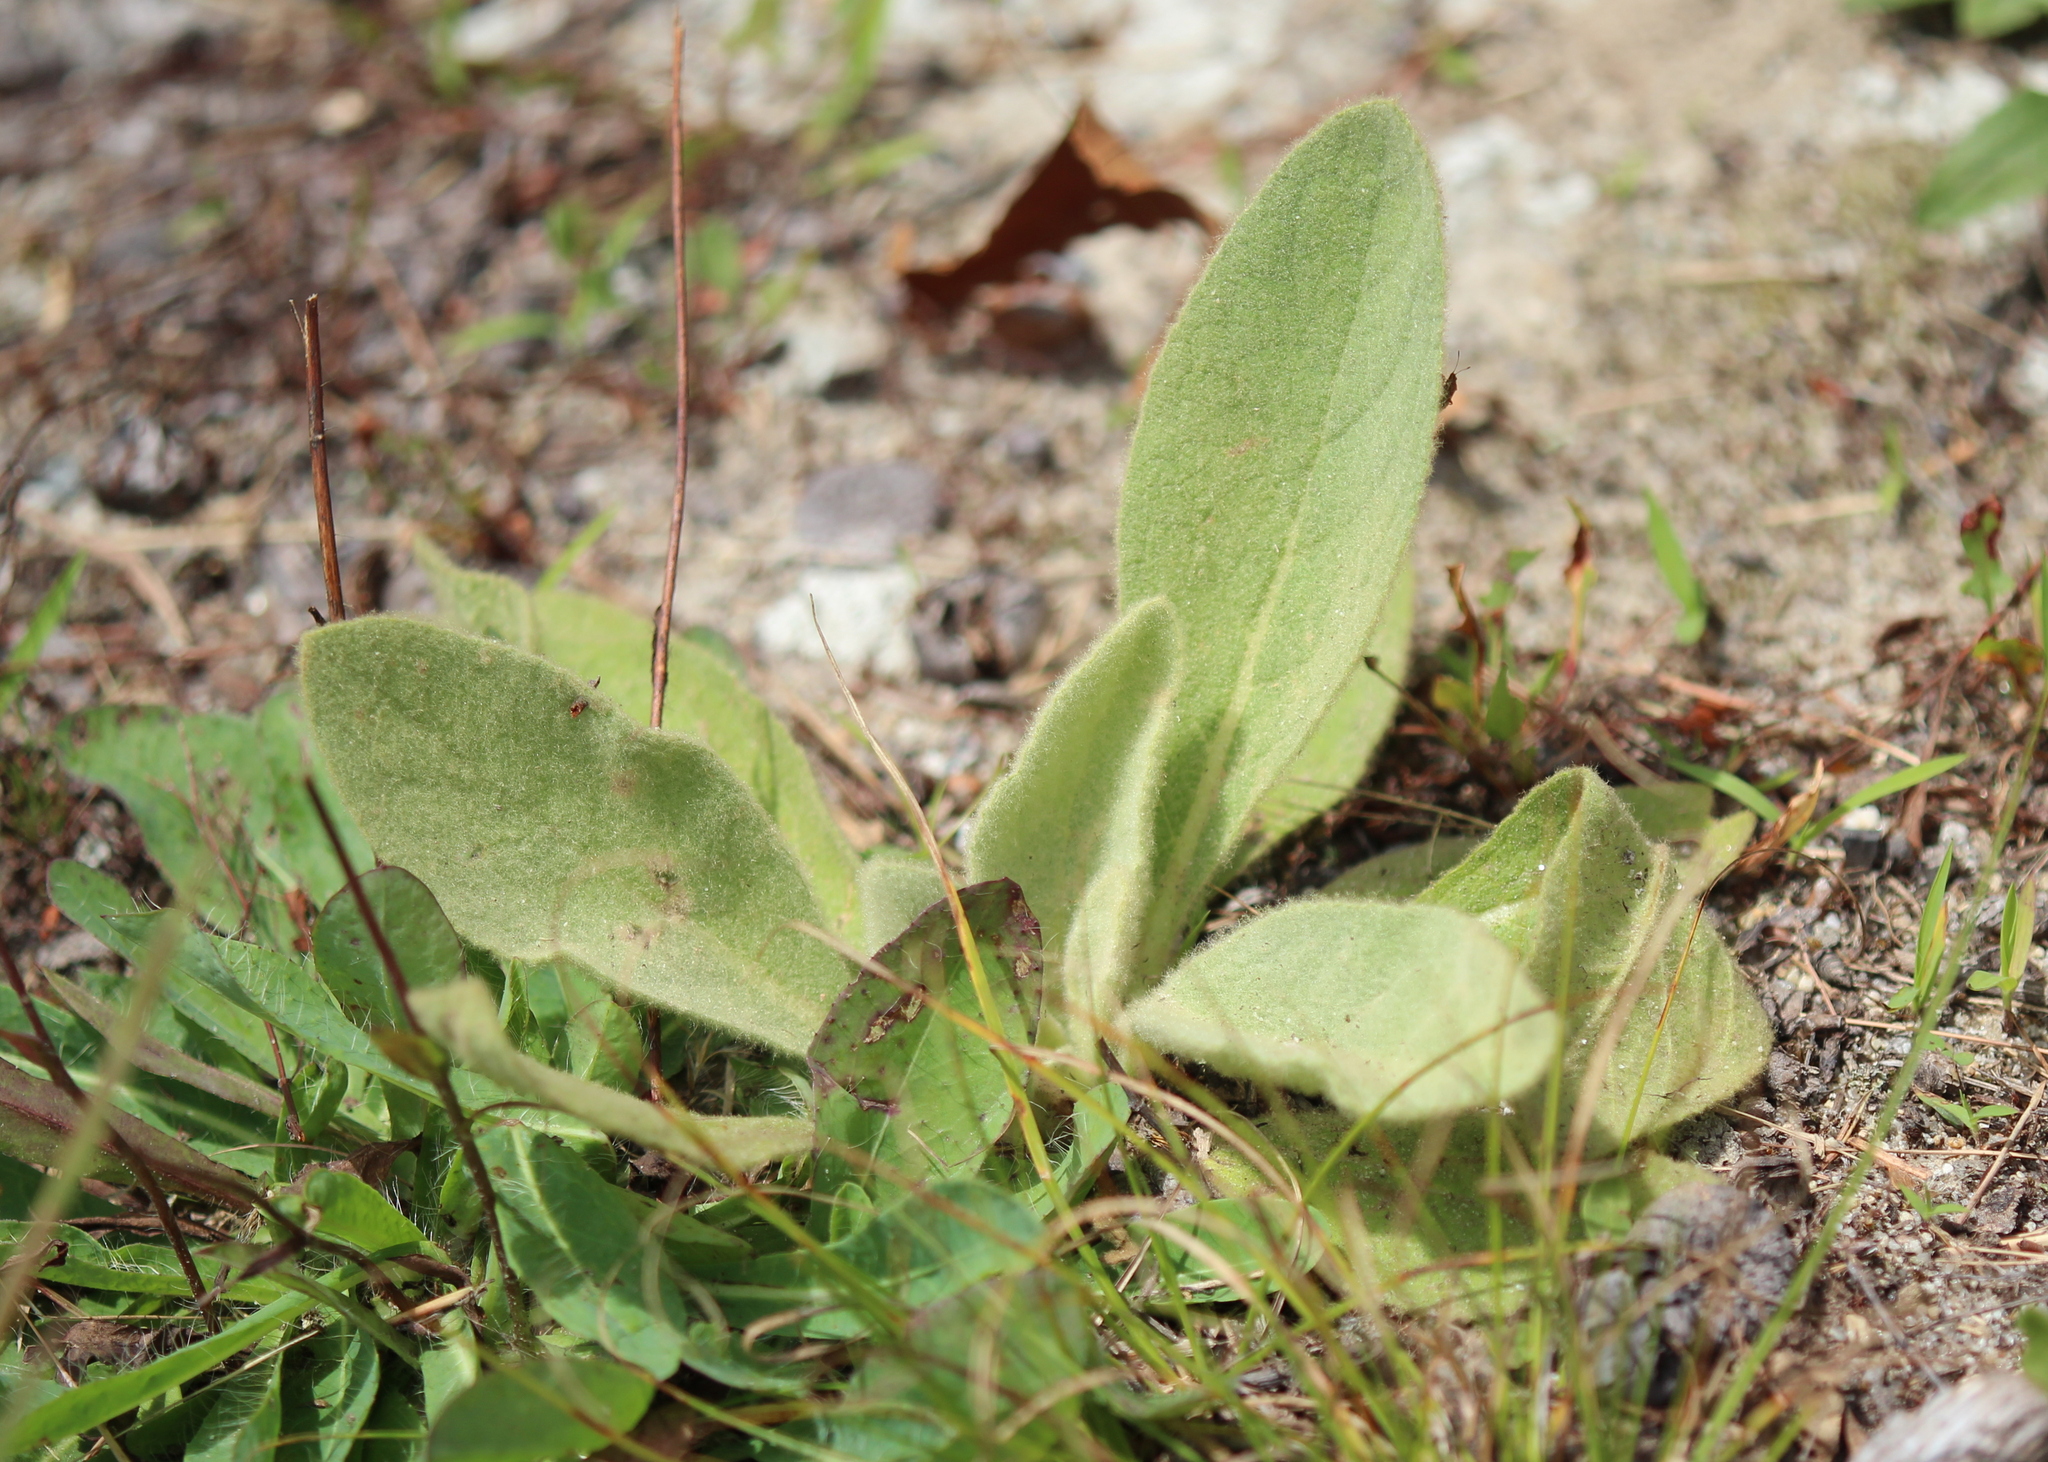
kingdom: Plantae
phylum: Tracheophyta
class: Magnoliopsida
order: Lamiales
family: Scrophulariaceae
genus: Verbascum
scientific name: Verbascum thapsus
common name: Common mullein
